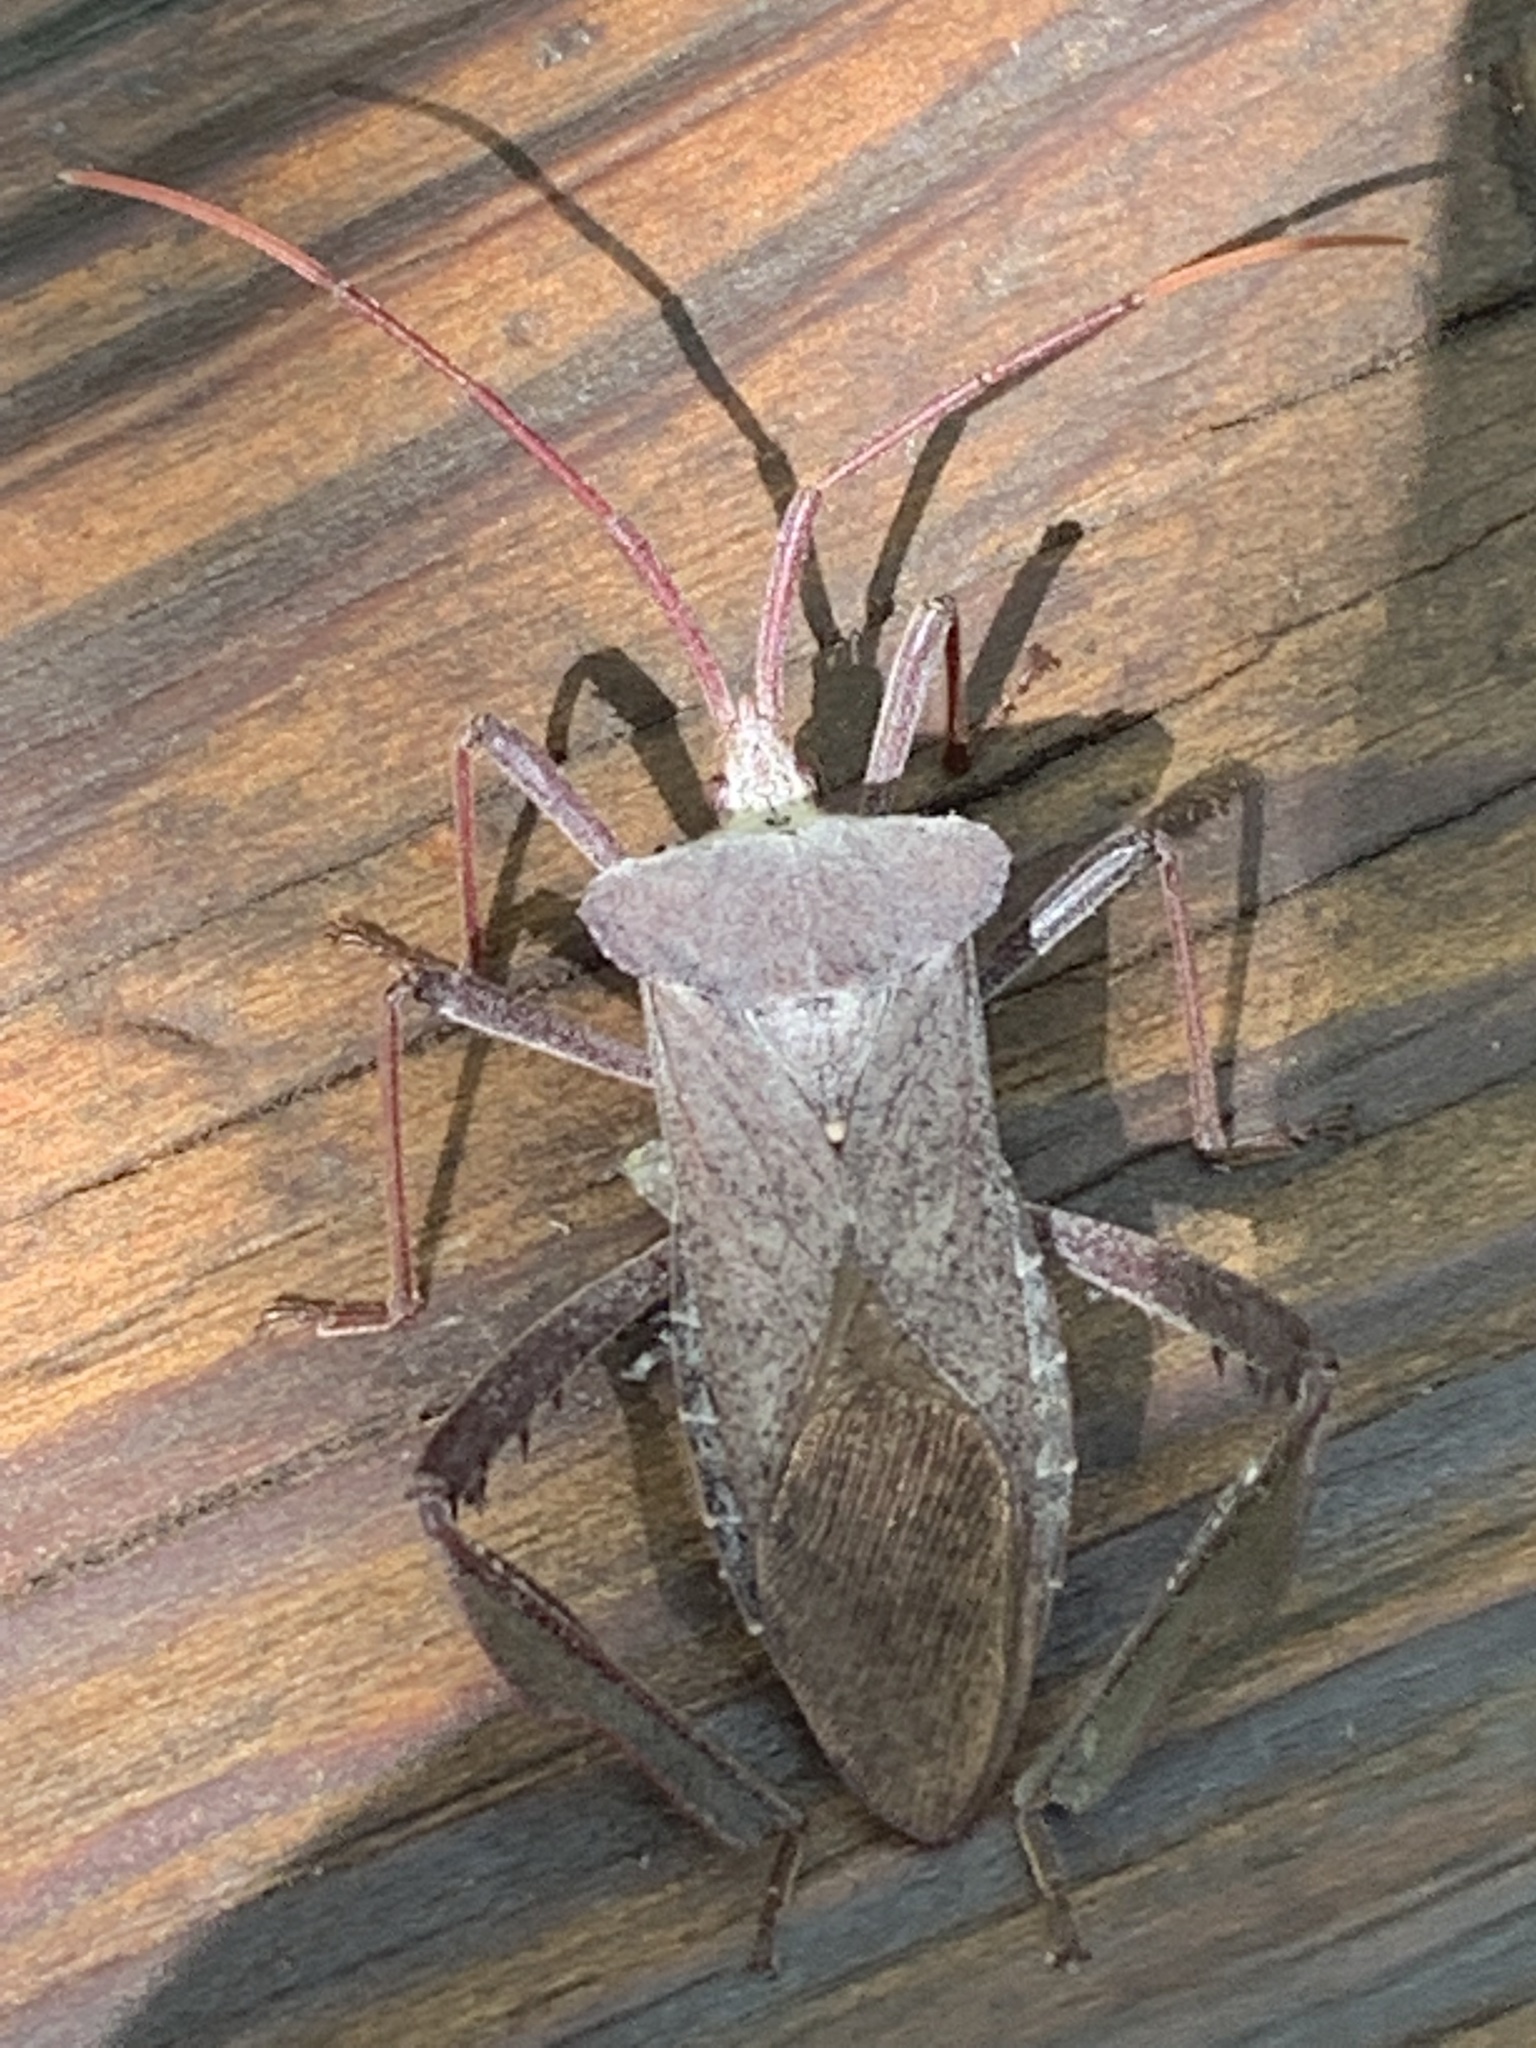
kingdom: Animalia
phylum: Arthropoda
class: Insecta
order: Hemiptera
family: Coreidae
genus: Acanthocephala
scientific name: Acanthocephala declivis
